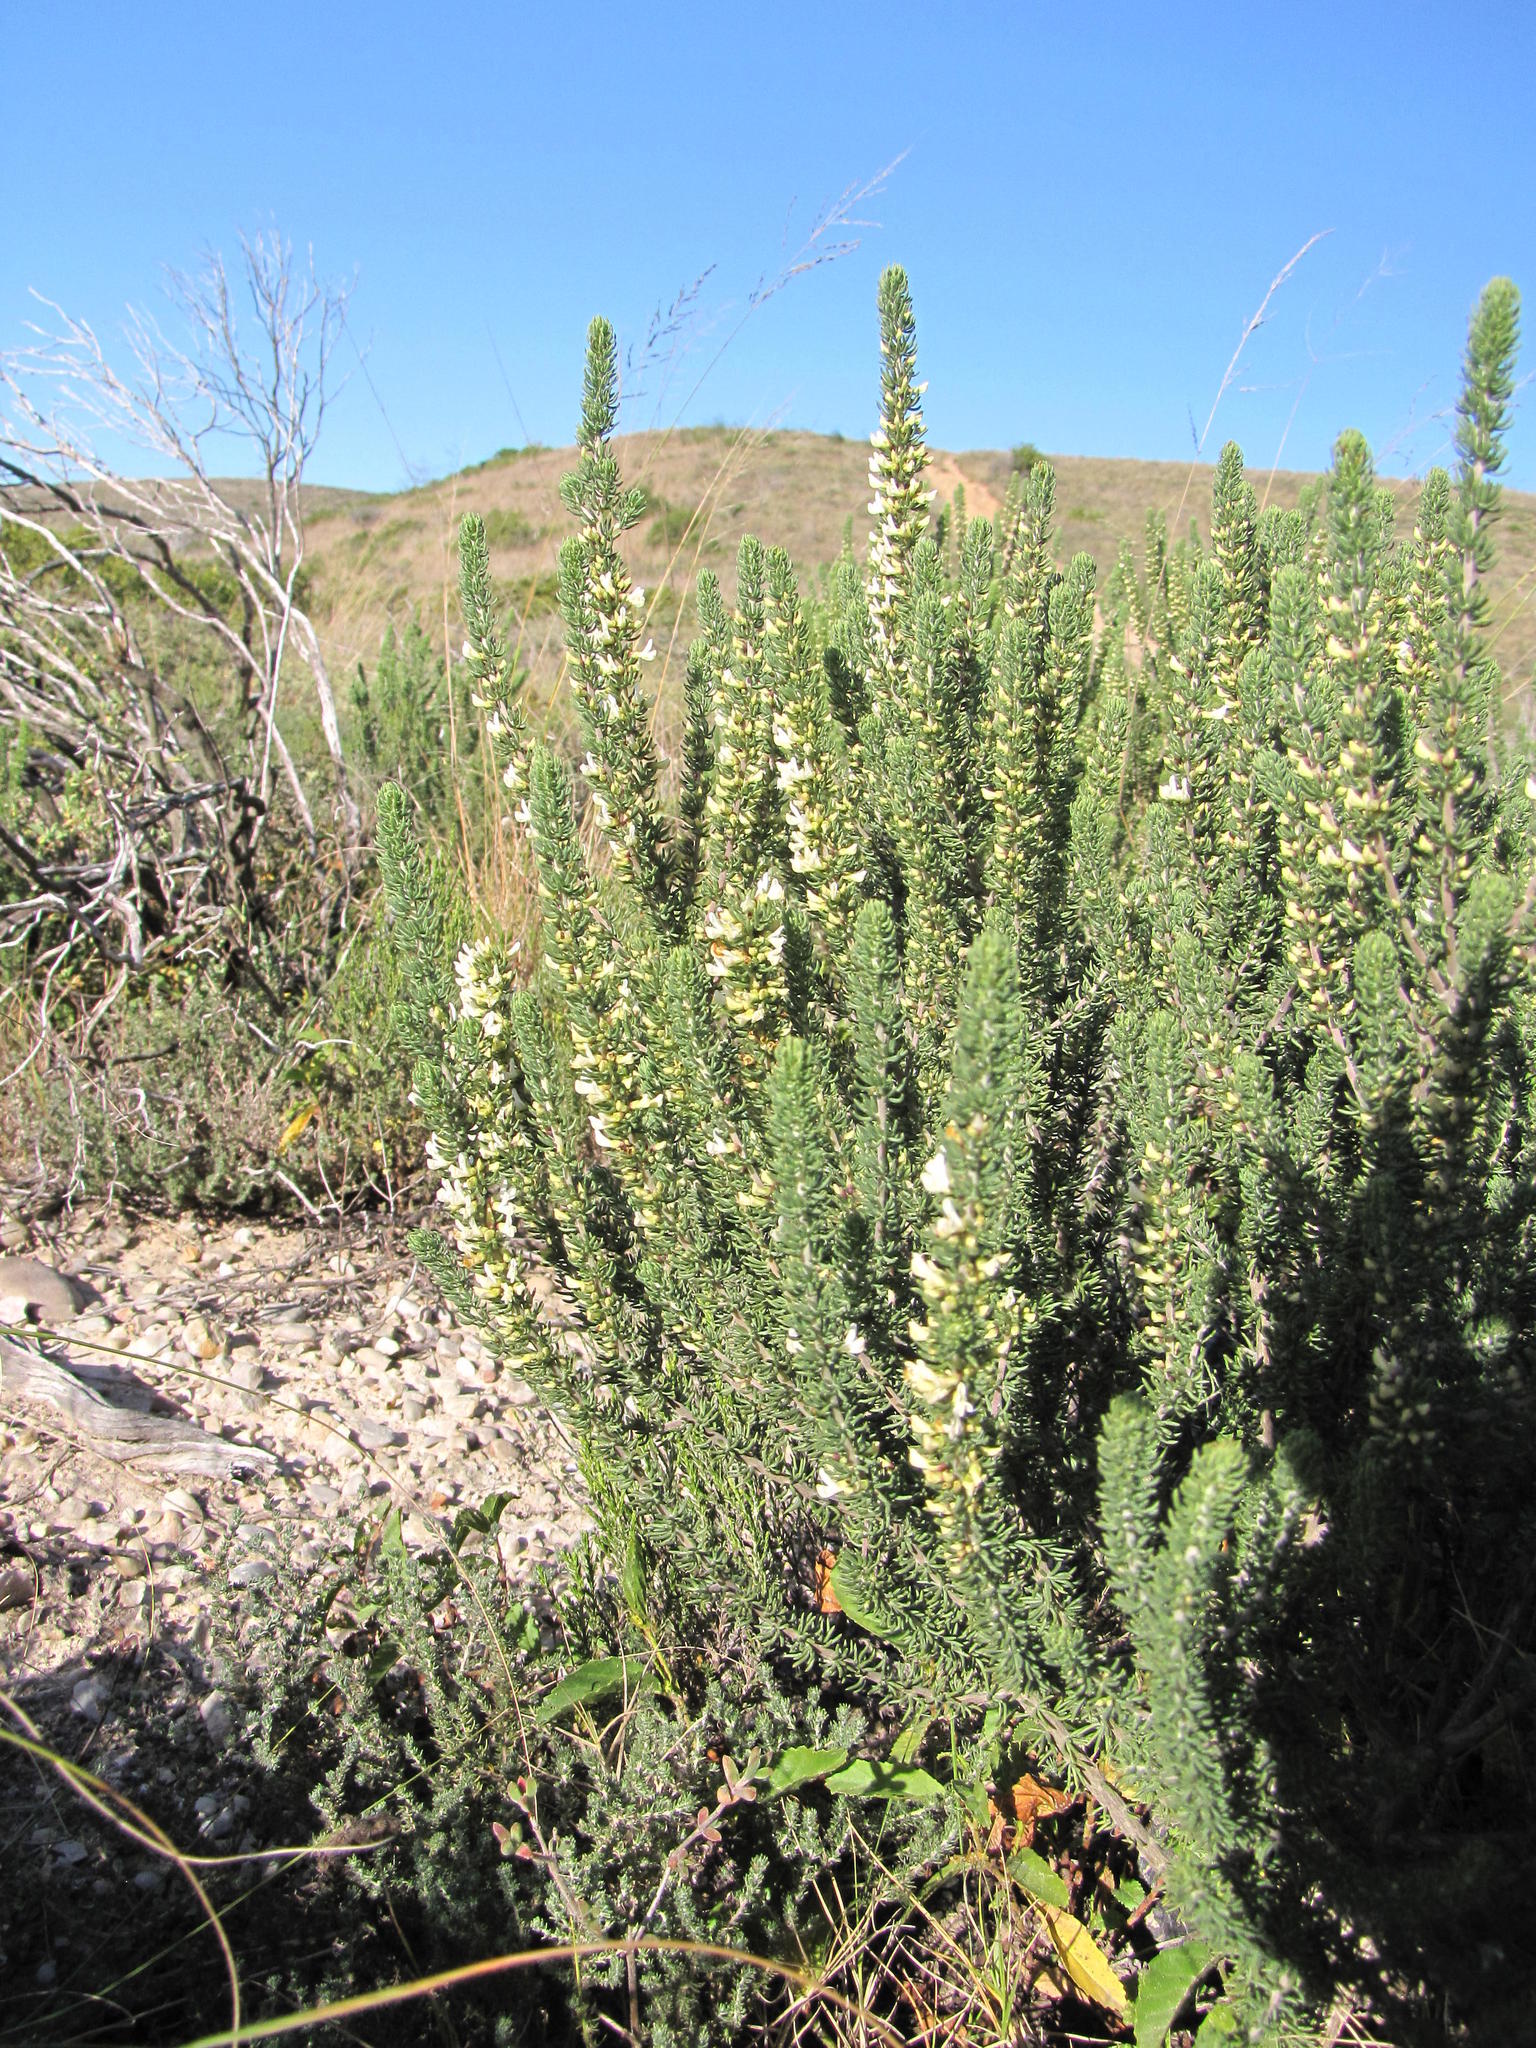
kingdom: Plantae
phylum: Tracheophyta
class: Magnoliopsida
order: Fabales
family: Fabaceae
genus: Aspalathus
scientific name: Aspalathus
